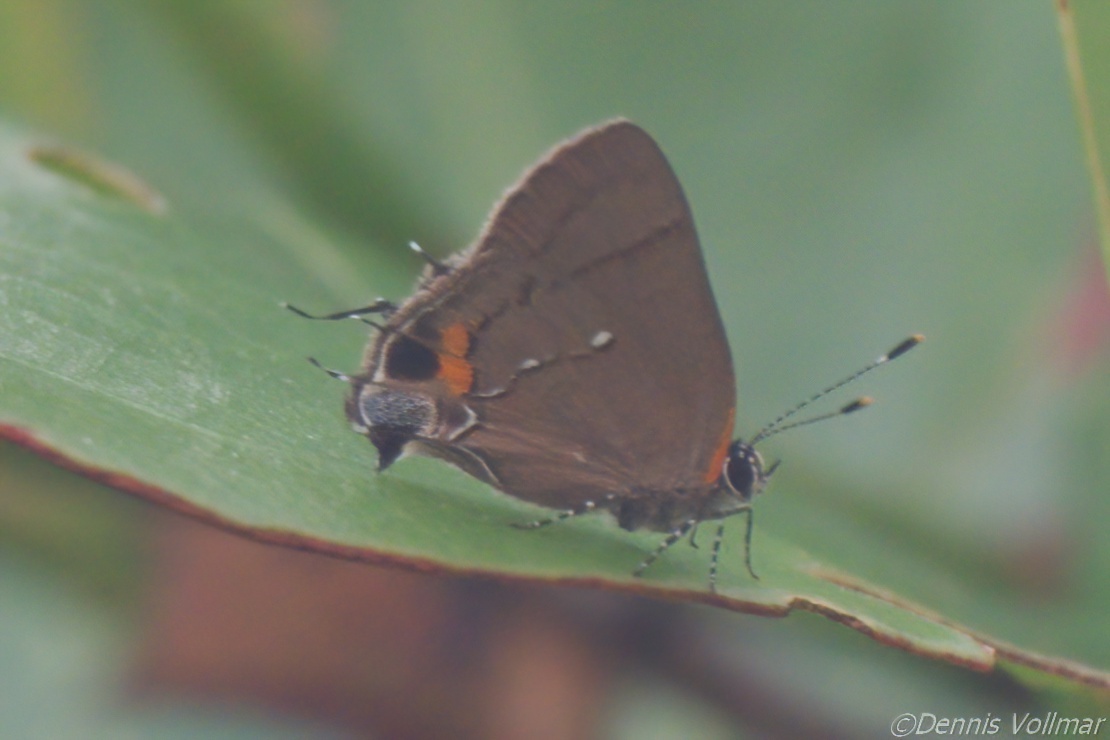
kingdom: Animalia
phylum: Arthropoda
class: Insecta
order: Lepidoptera
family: Lycaenidae
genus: Thecla
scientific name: Thecla angelia
